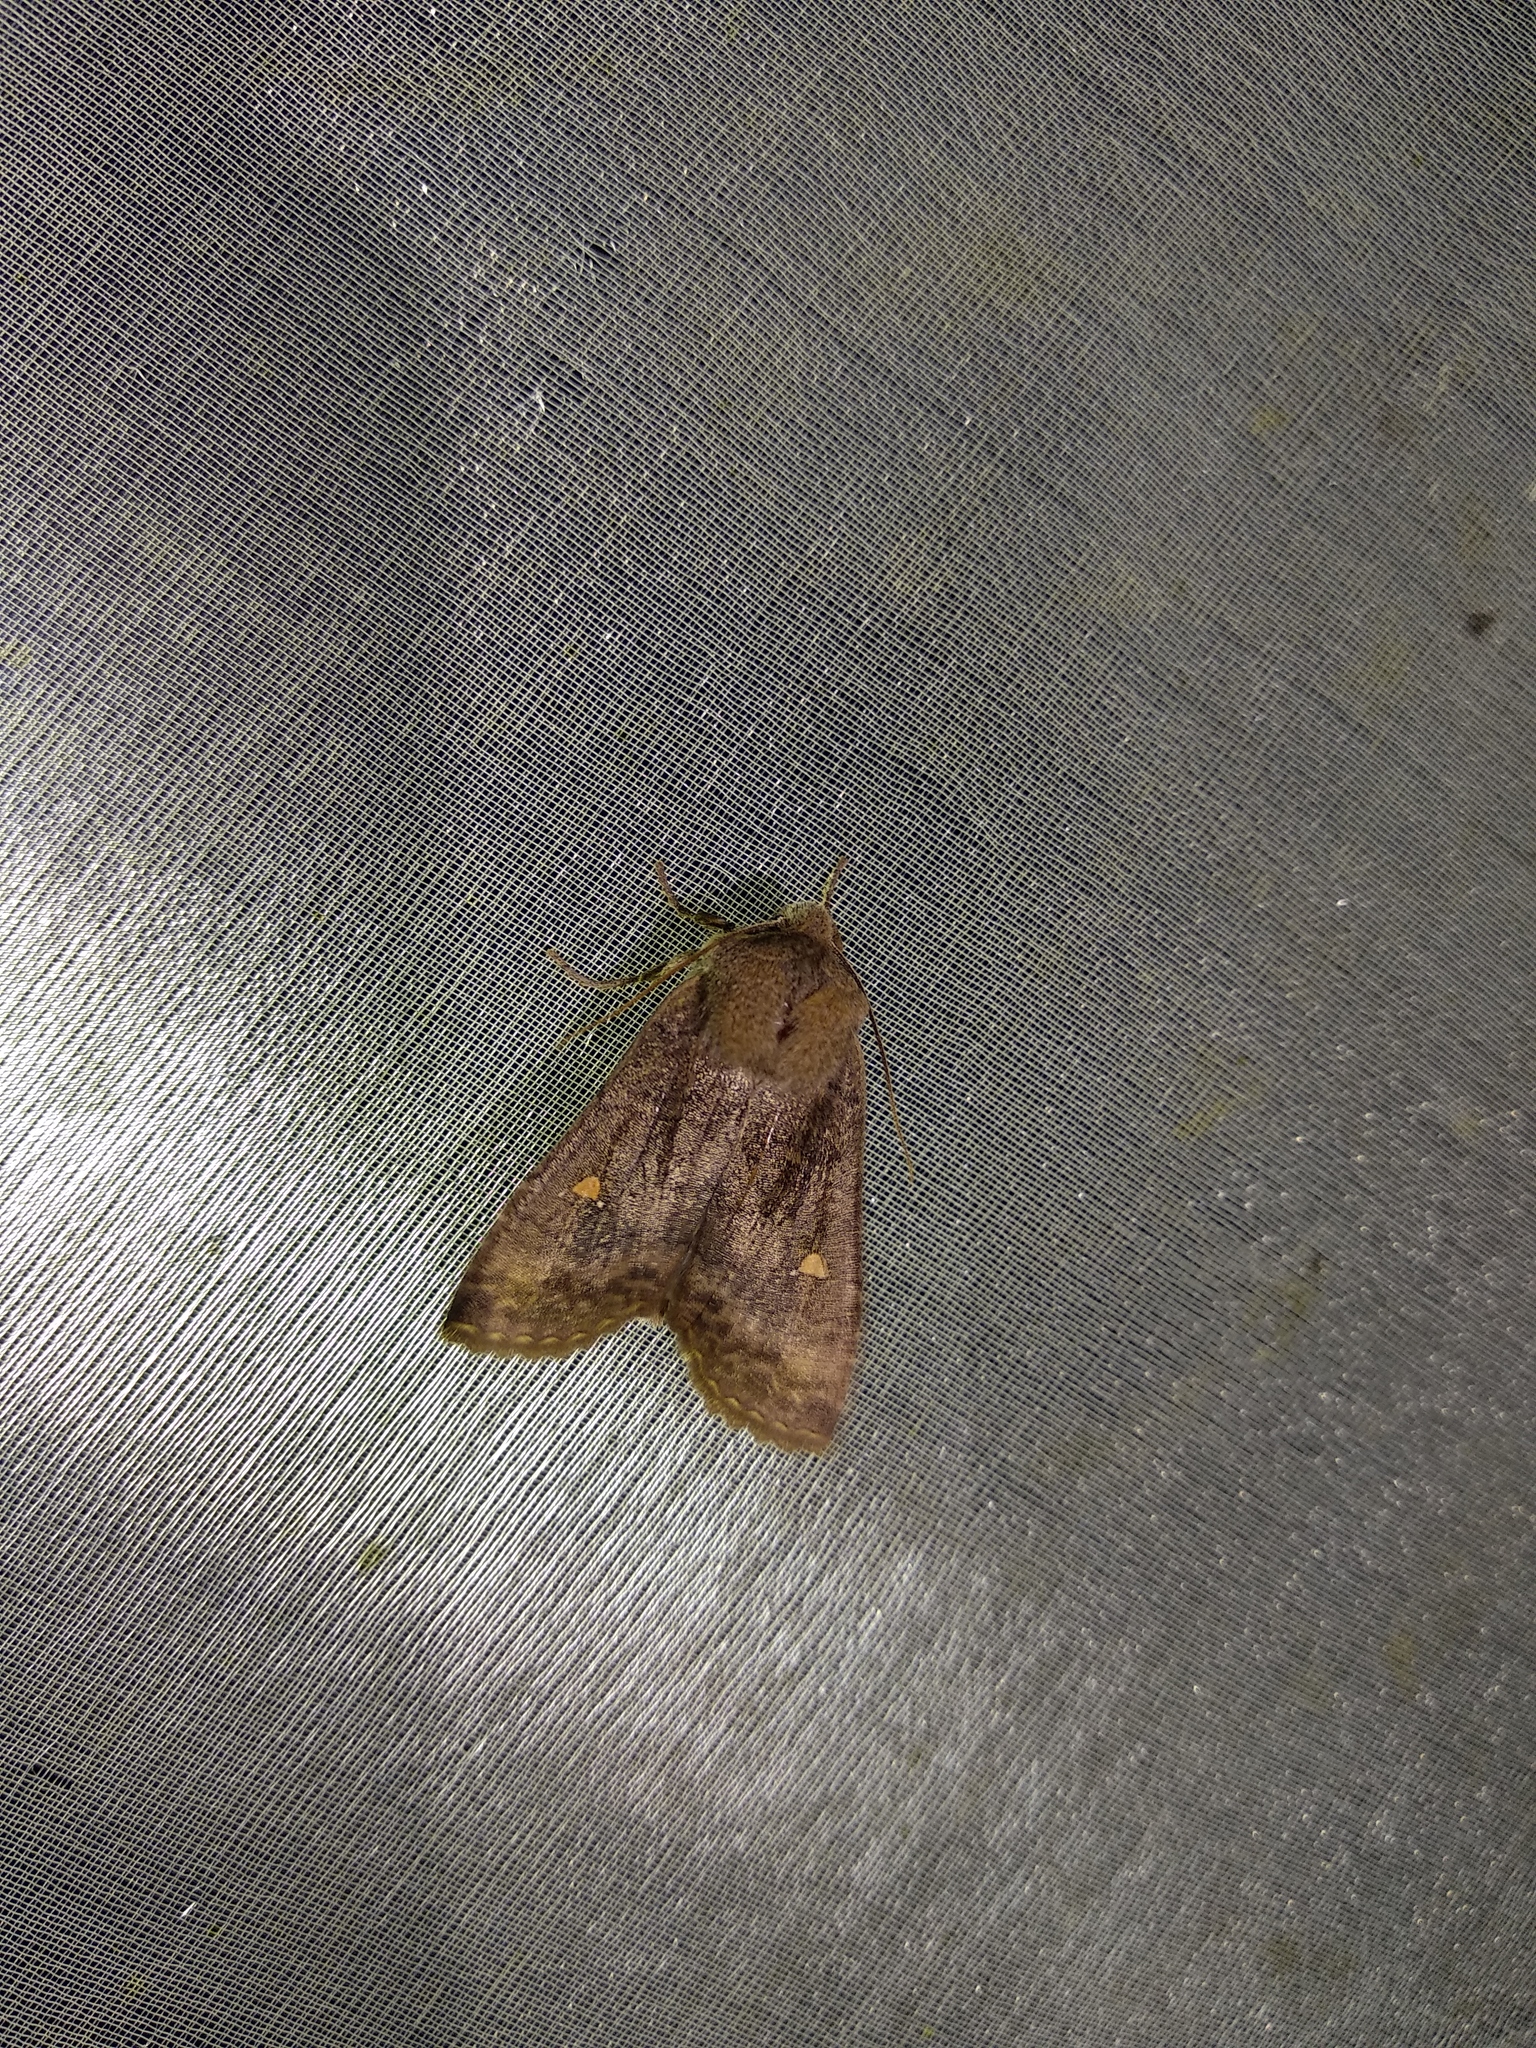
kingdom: Animalia
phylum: Arthropoda
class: Insecta
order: Lepidoptera
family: Noctuidae
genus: Eupsilia
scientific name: Eupsilia transversa
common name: Satellite
